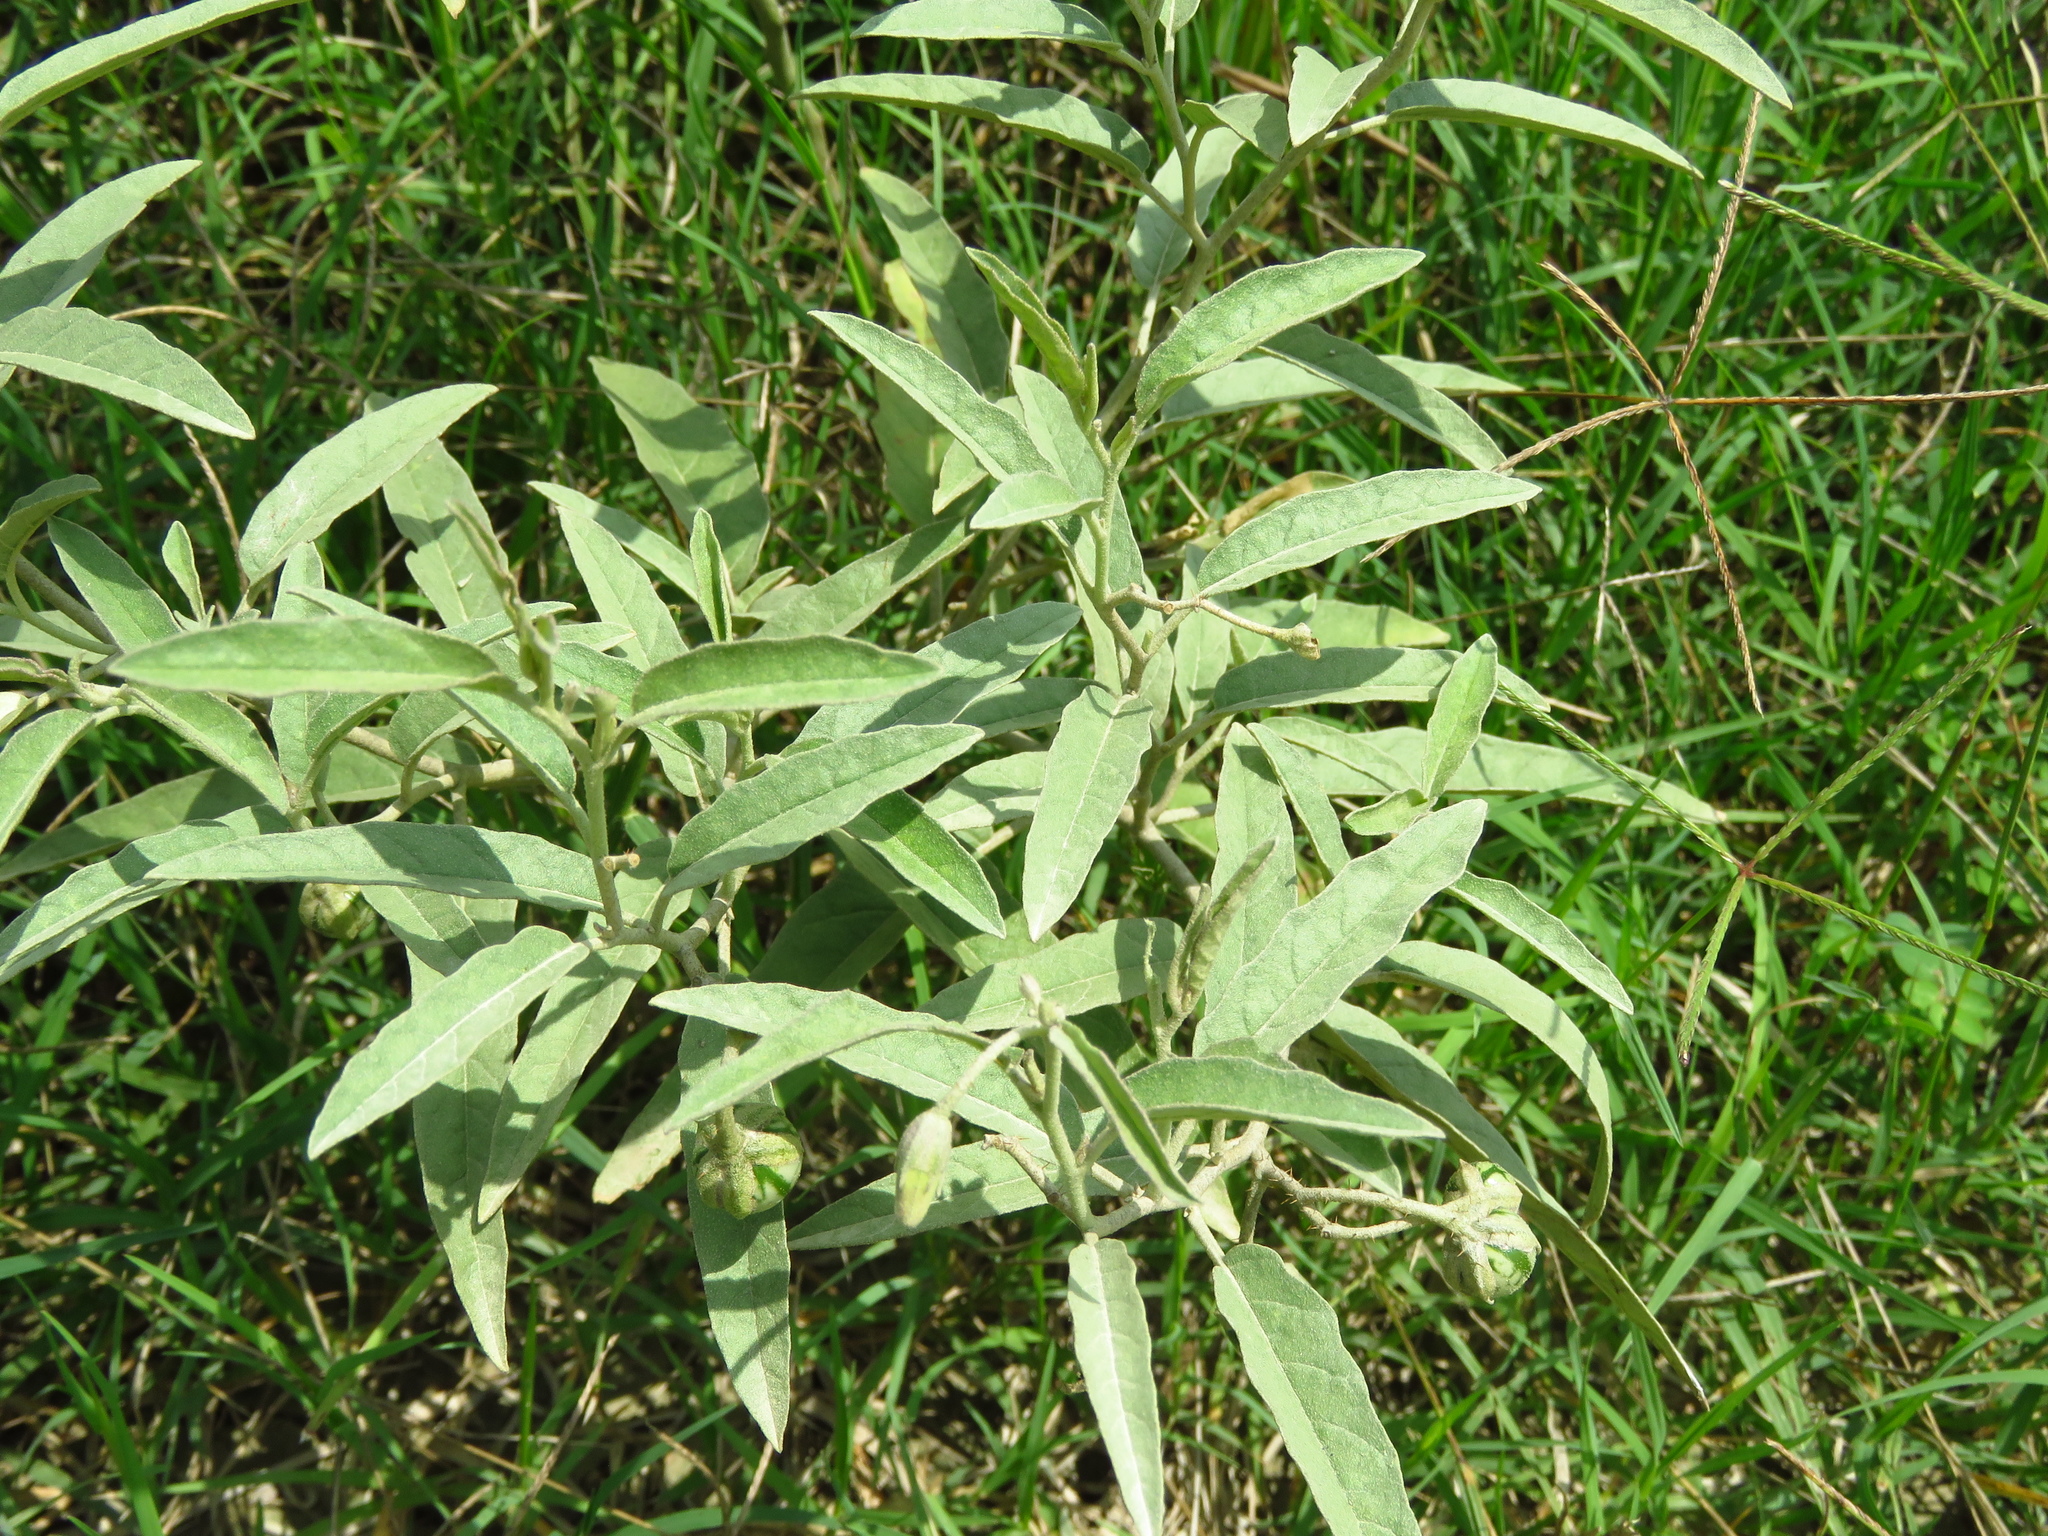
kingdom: Plantae
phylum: Tracheophyta
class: Magnoliopsida
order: Solanales
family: Solanaceae
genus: Solanum
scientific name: Solanum elaeagnifolium
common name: Silverleaf nightshade
